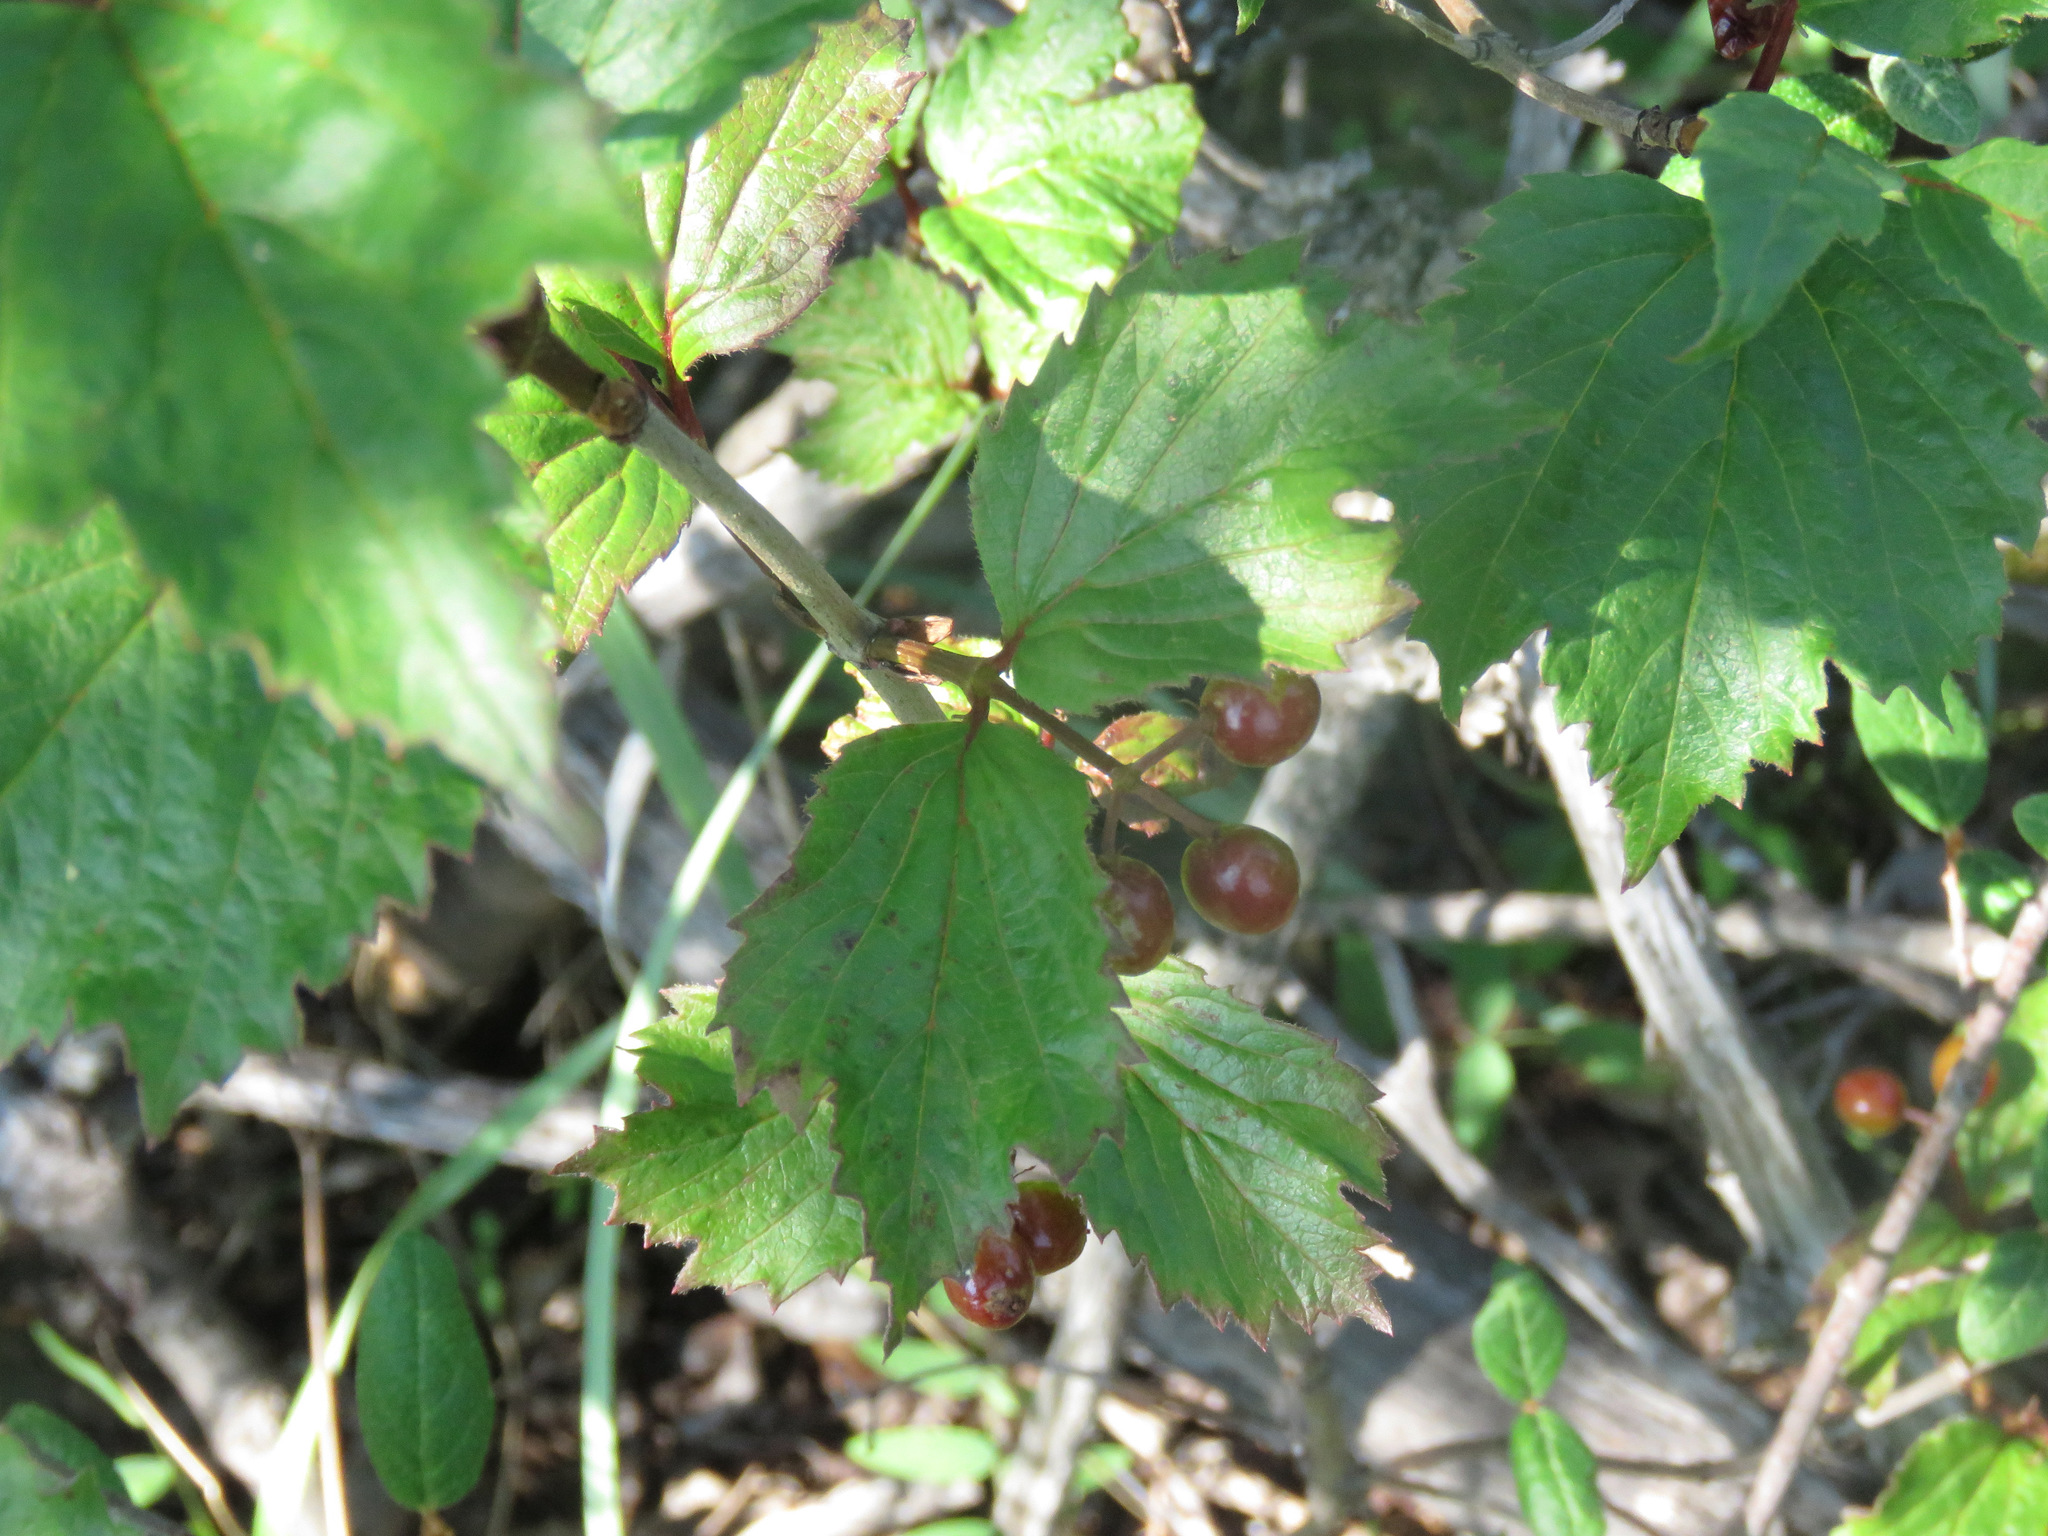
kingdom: Plantae
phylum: Tracheophyta
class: Magnoliopsida
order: Dipsacales
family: Viburnaceae
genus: Viburnum
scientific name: Viburnum edule
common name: Mooseberry
